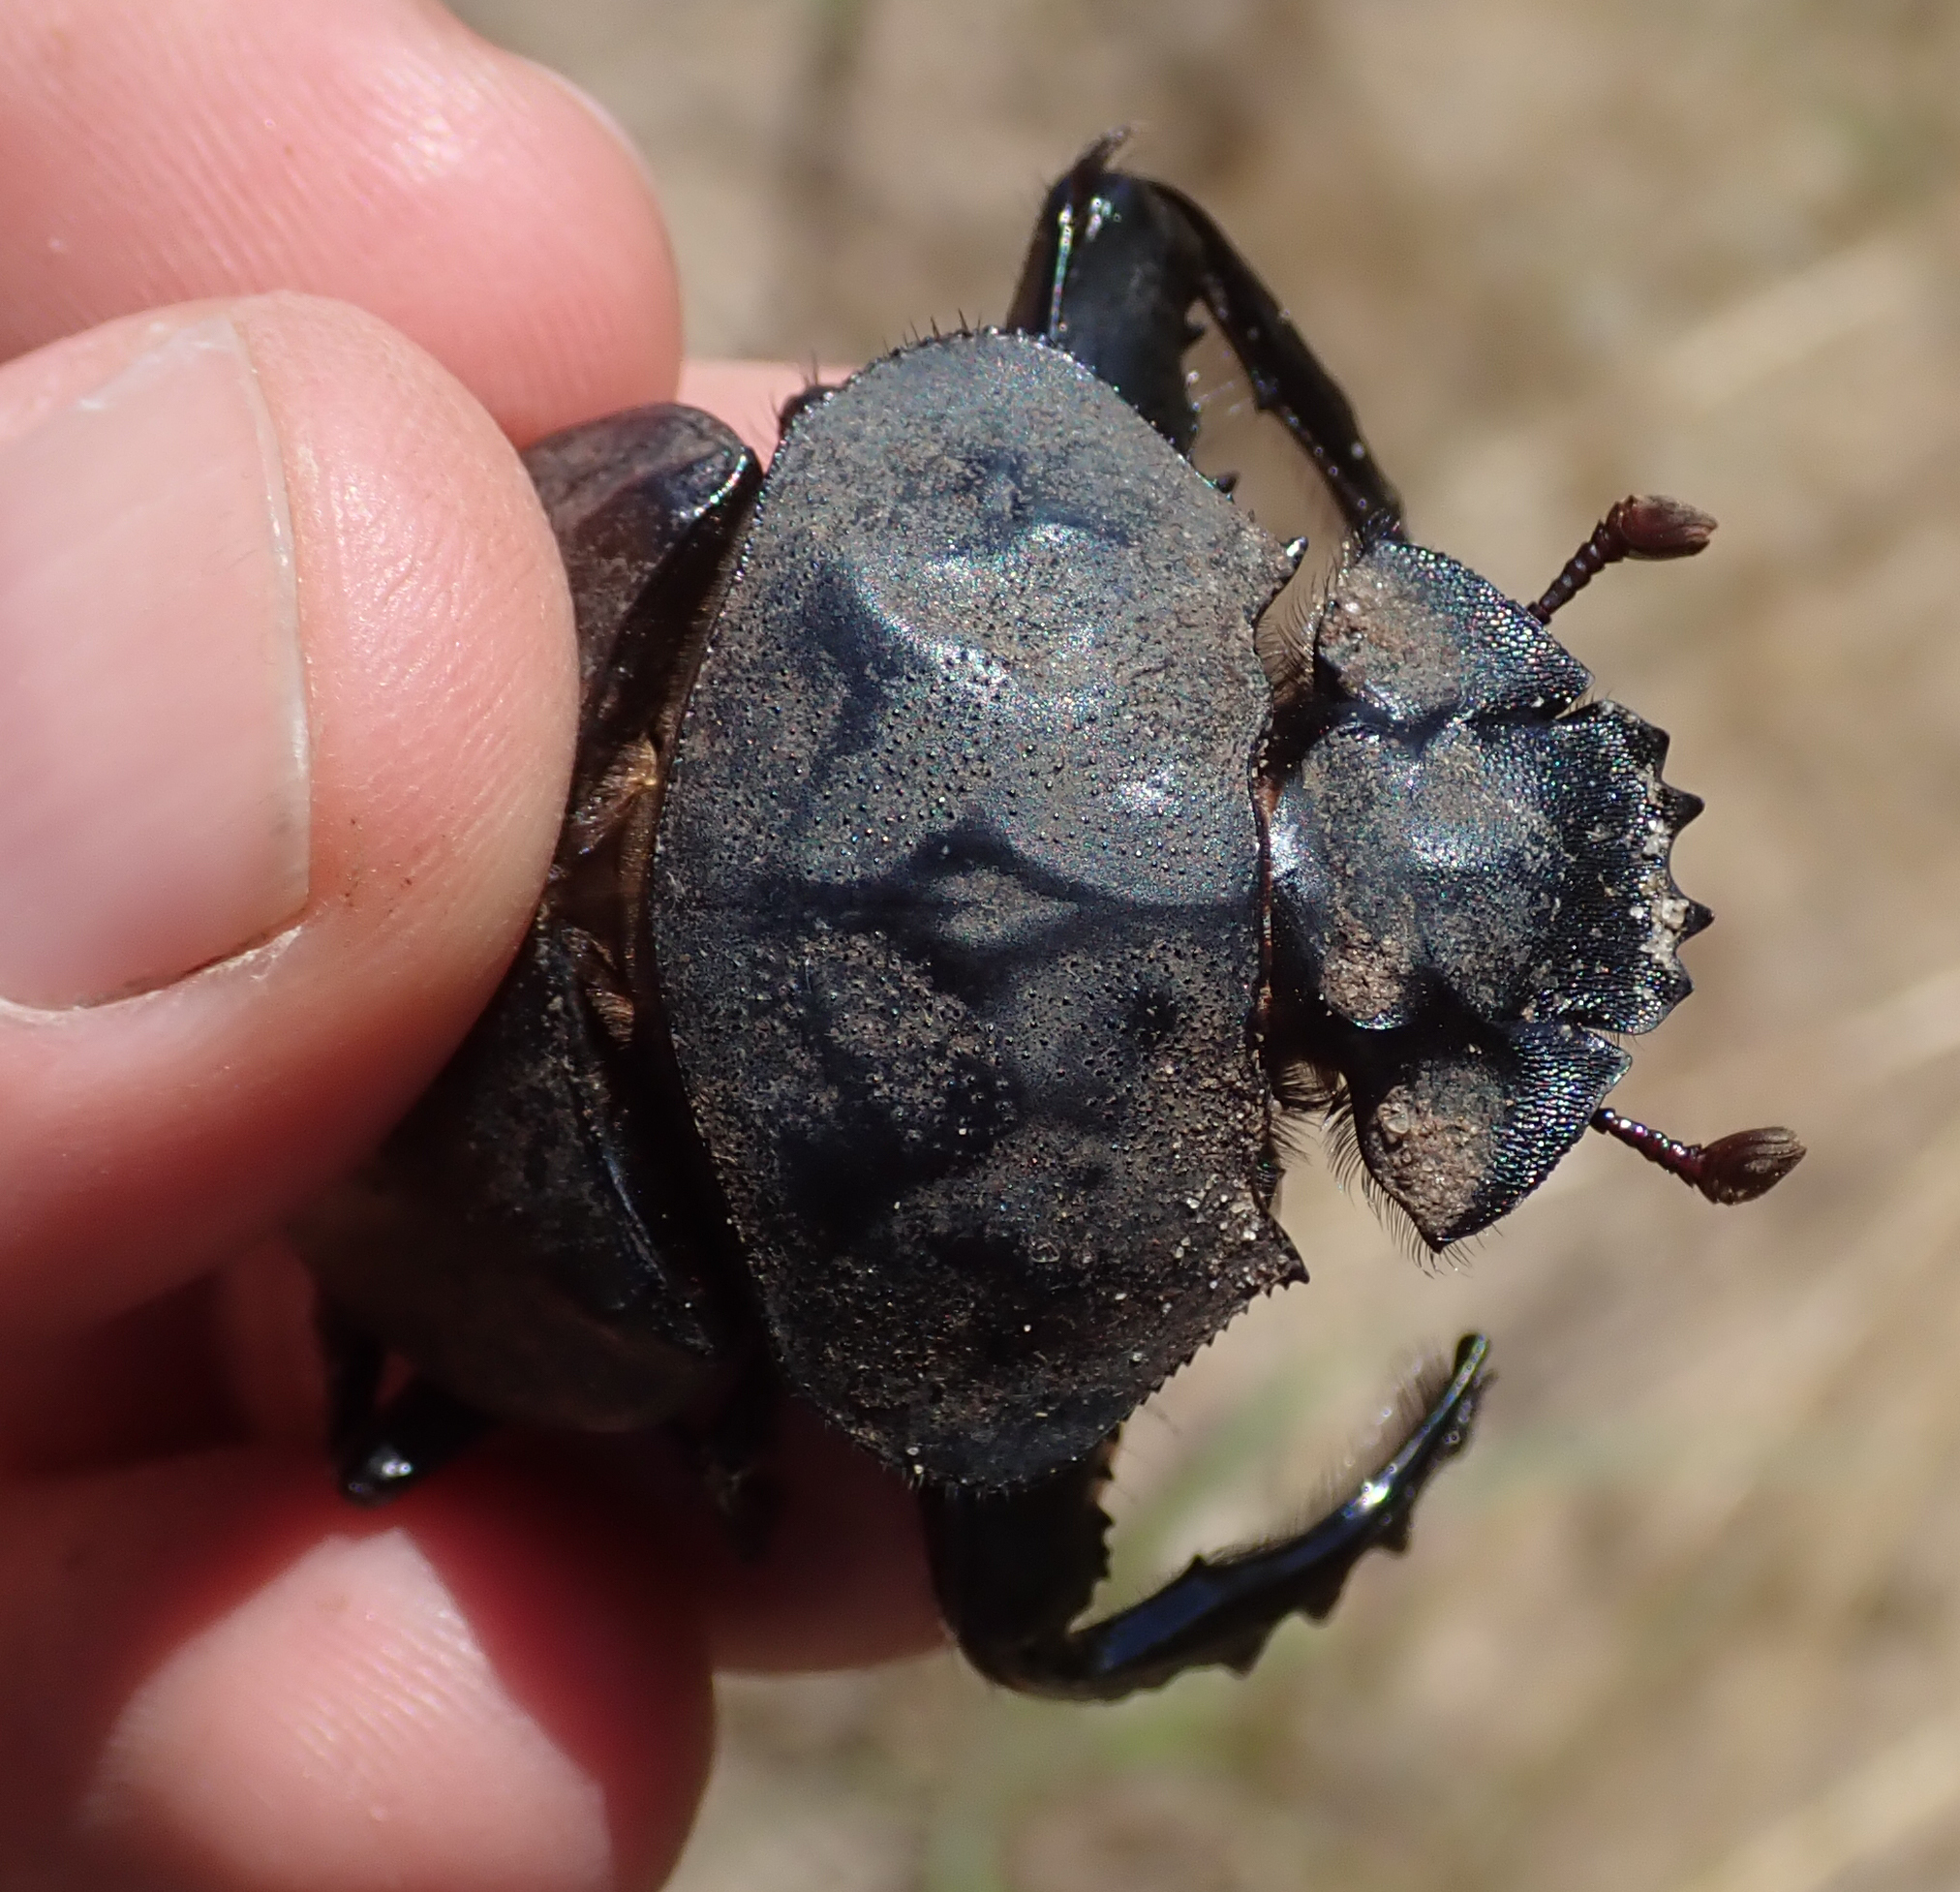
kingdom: Animalia
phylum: Arthropoda
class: Insecta
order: Coleoptera
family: Scarabaeidae
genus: Pachylomera
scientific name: Pachylomera femoralis
